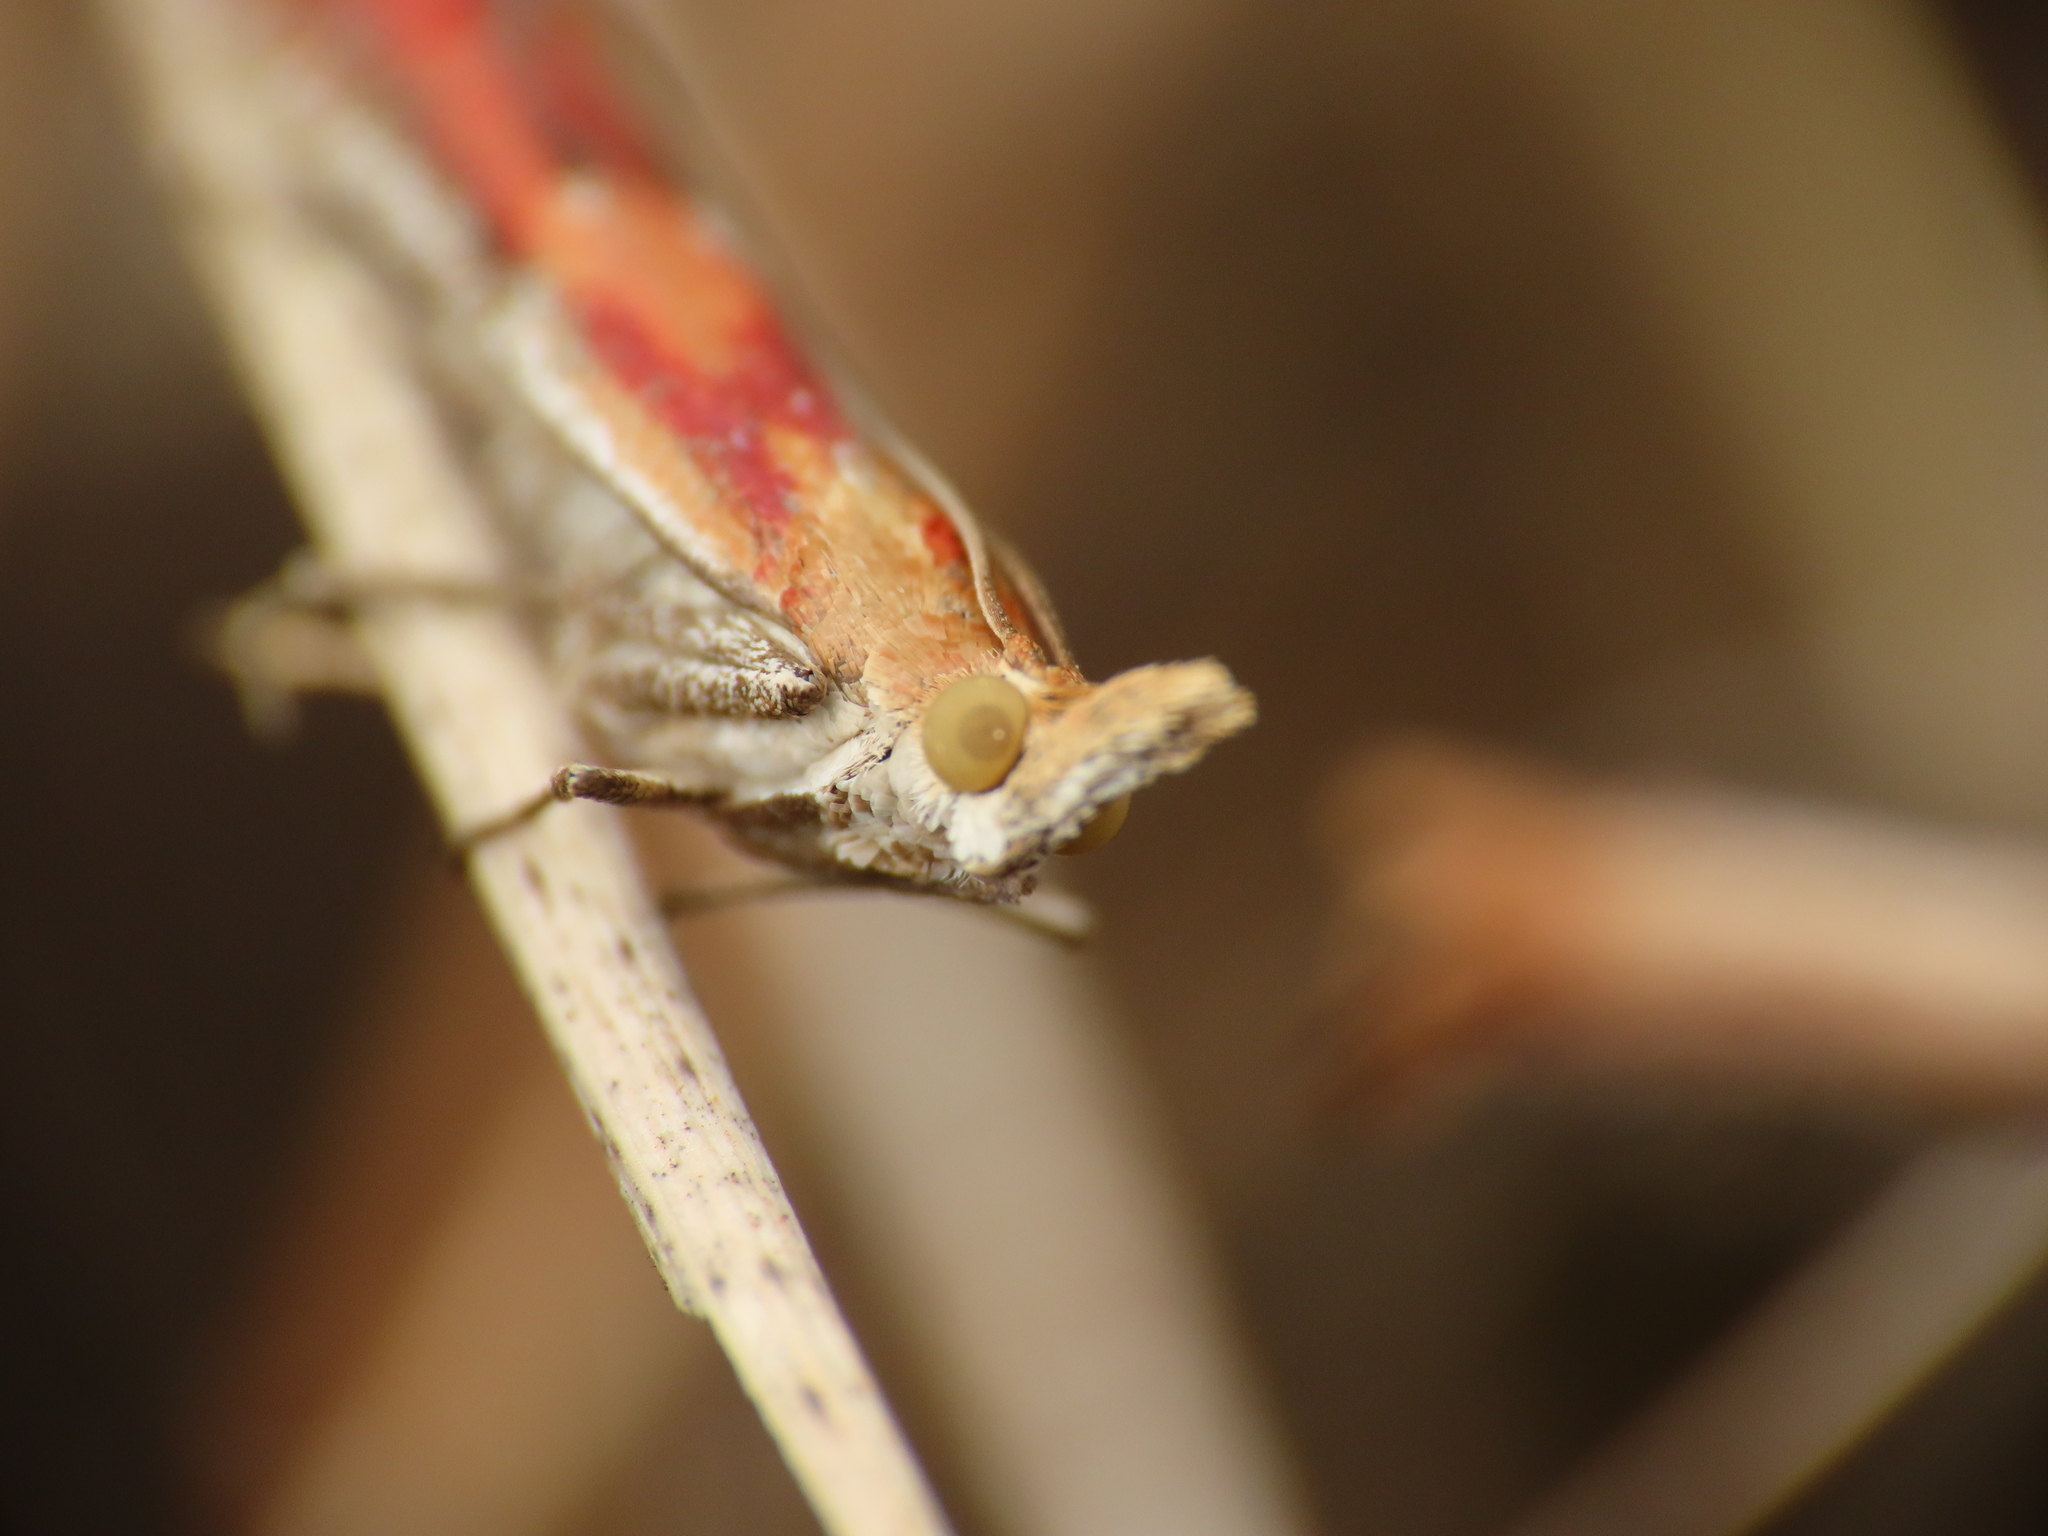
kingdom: Animalia
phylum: Arthropoda
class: Insecta
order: Lepidoptera
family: Pyralidae
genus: Ancylosis
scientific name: Ancylosis cinnamomella
